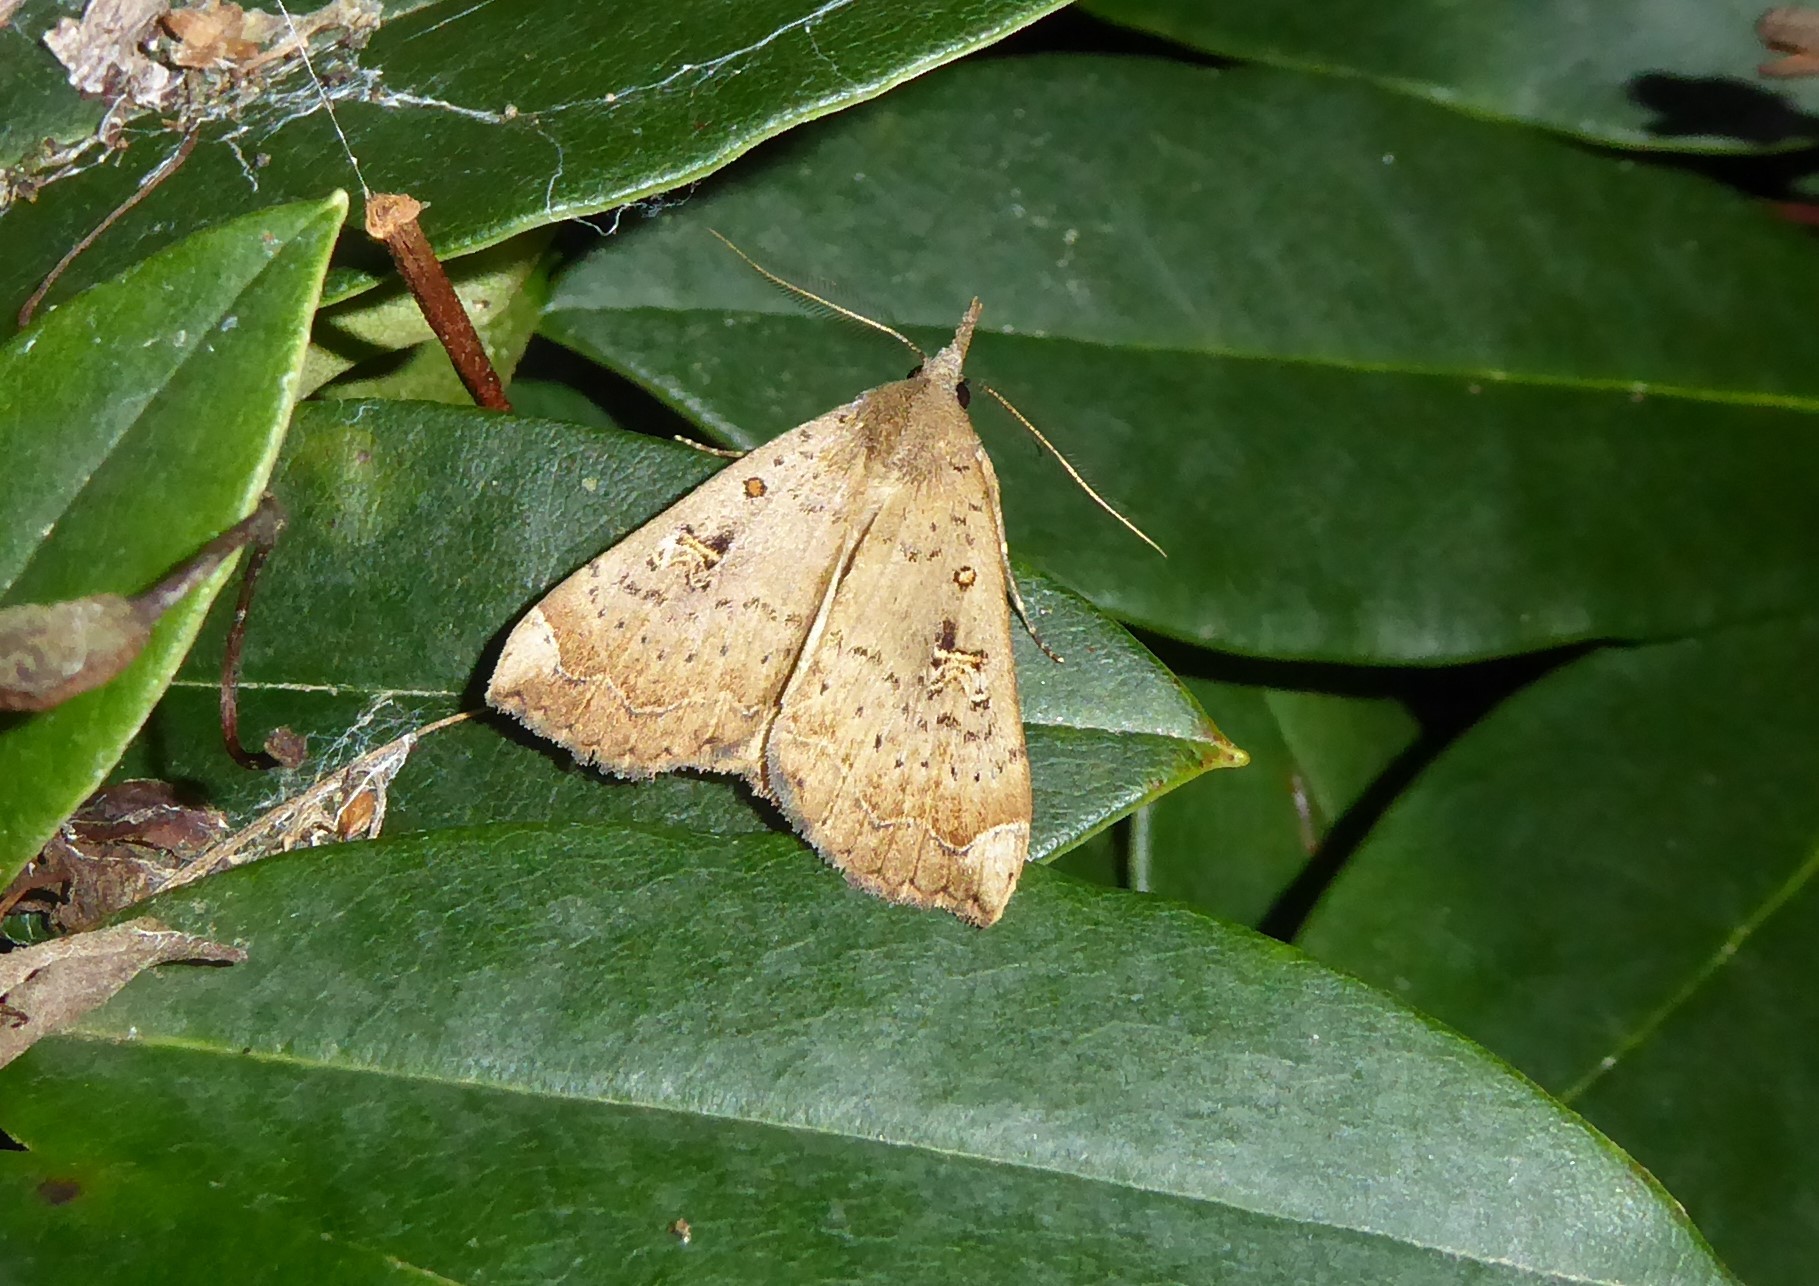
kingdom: Animalia
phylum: Arthropoda
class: Insecta
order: Lepidoptera
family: Erebidae
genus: Rhapsa
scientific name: Rhapsa scotosialis
